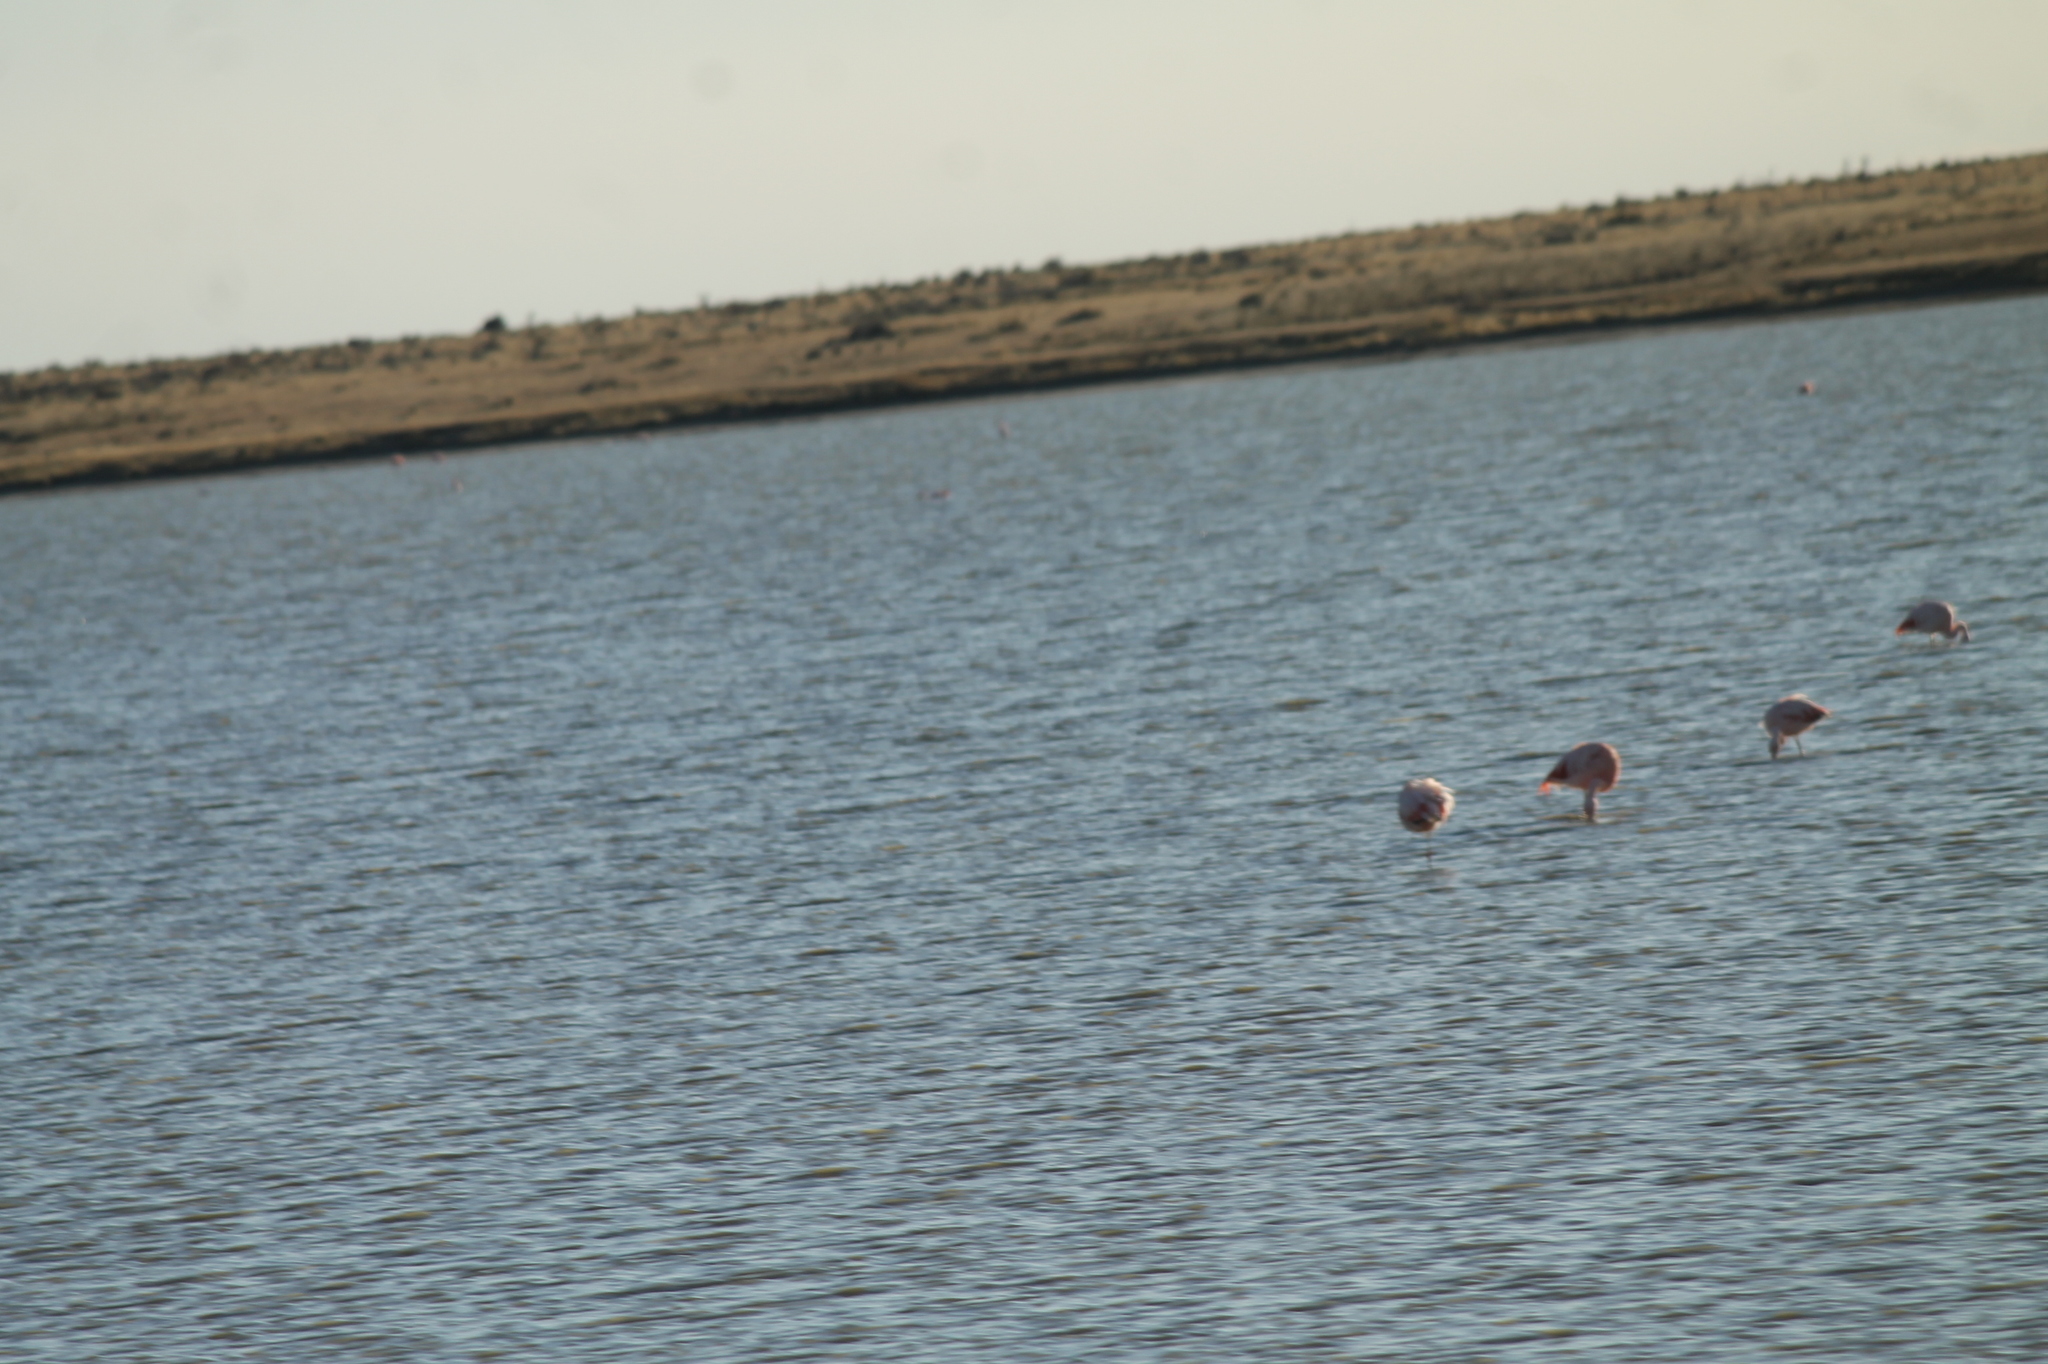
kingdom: Animalia
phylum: Chordata
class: Aves
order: Phoenicopteriformes
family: Phoenicopteridae
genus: Phoenicopterus
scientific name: Phoenicopterus chilensis
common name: Chilean flamingo
